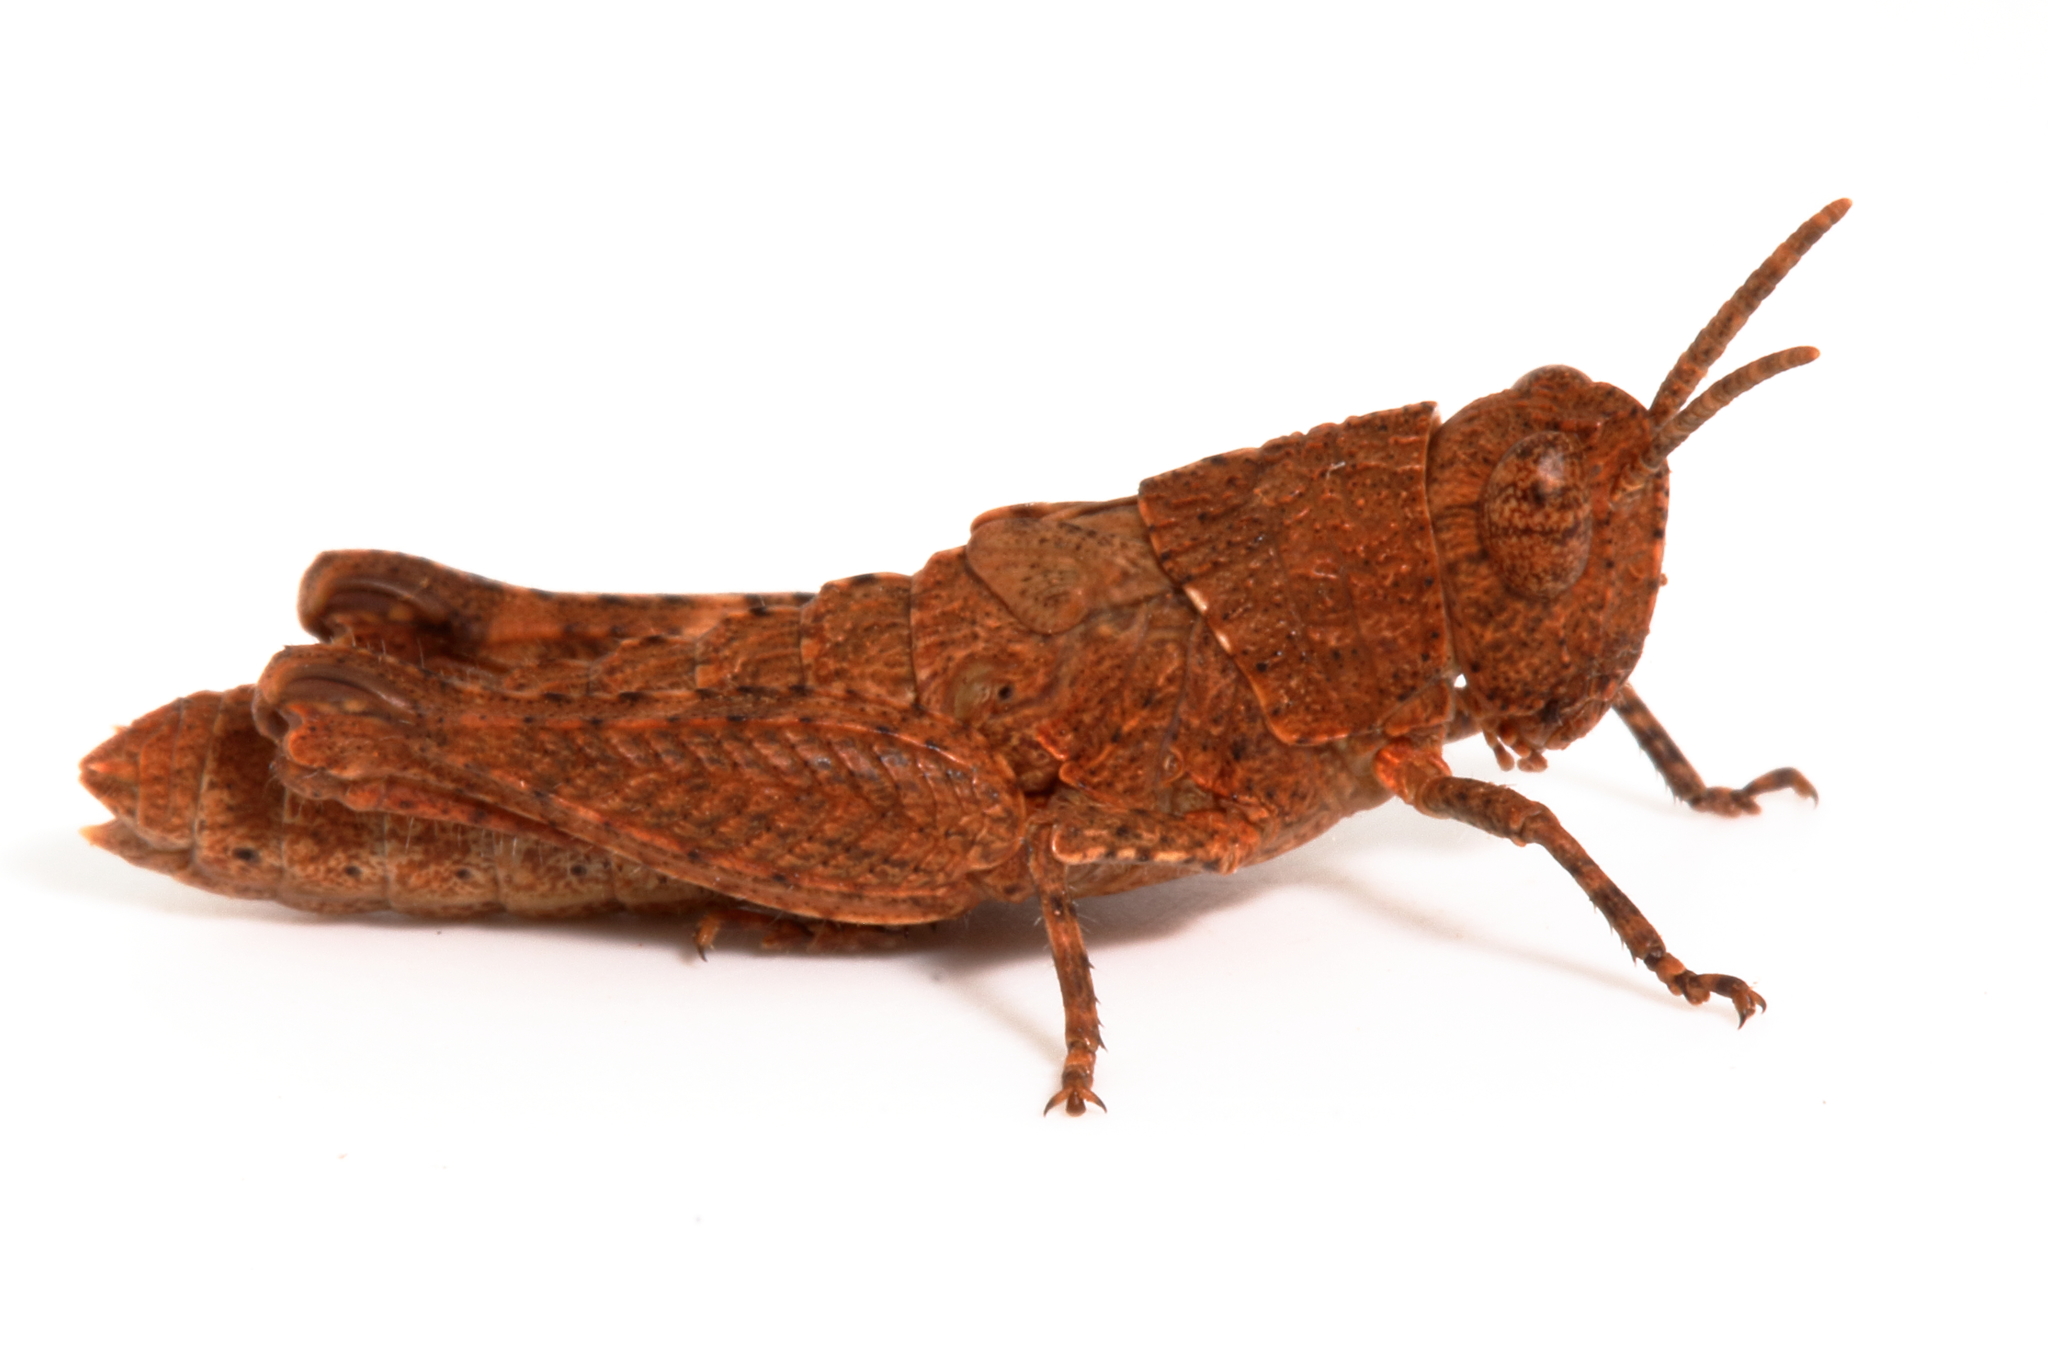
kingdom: Animalia
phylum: Arthropoda
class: Insecta
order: Orthoptera
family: Acrididae
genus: Peakesia
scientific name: Peakesia hospita
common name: Common peakesia
